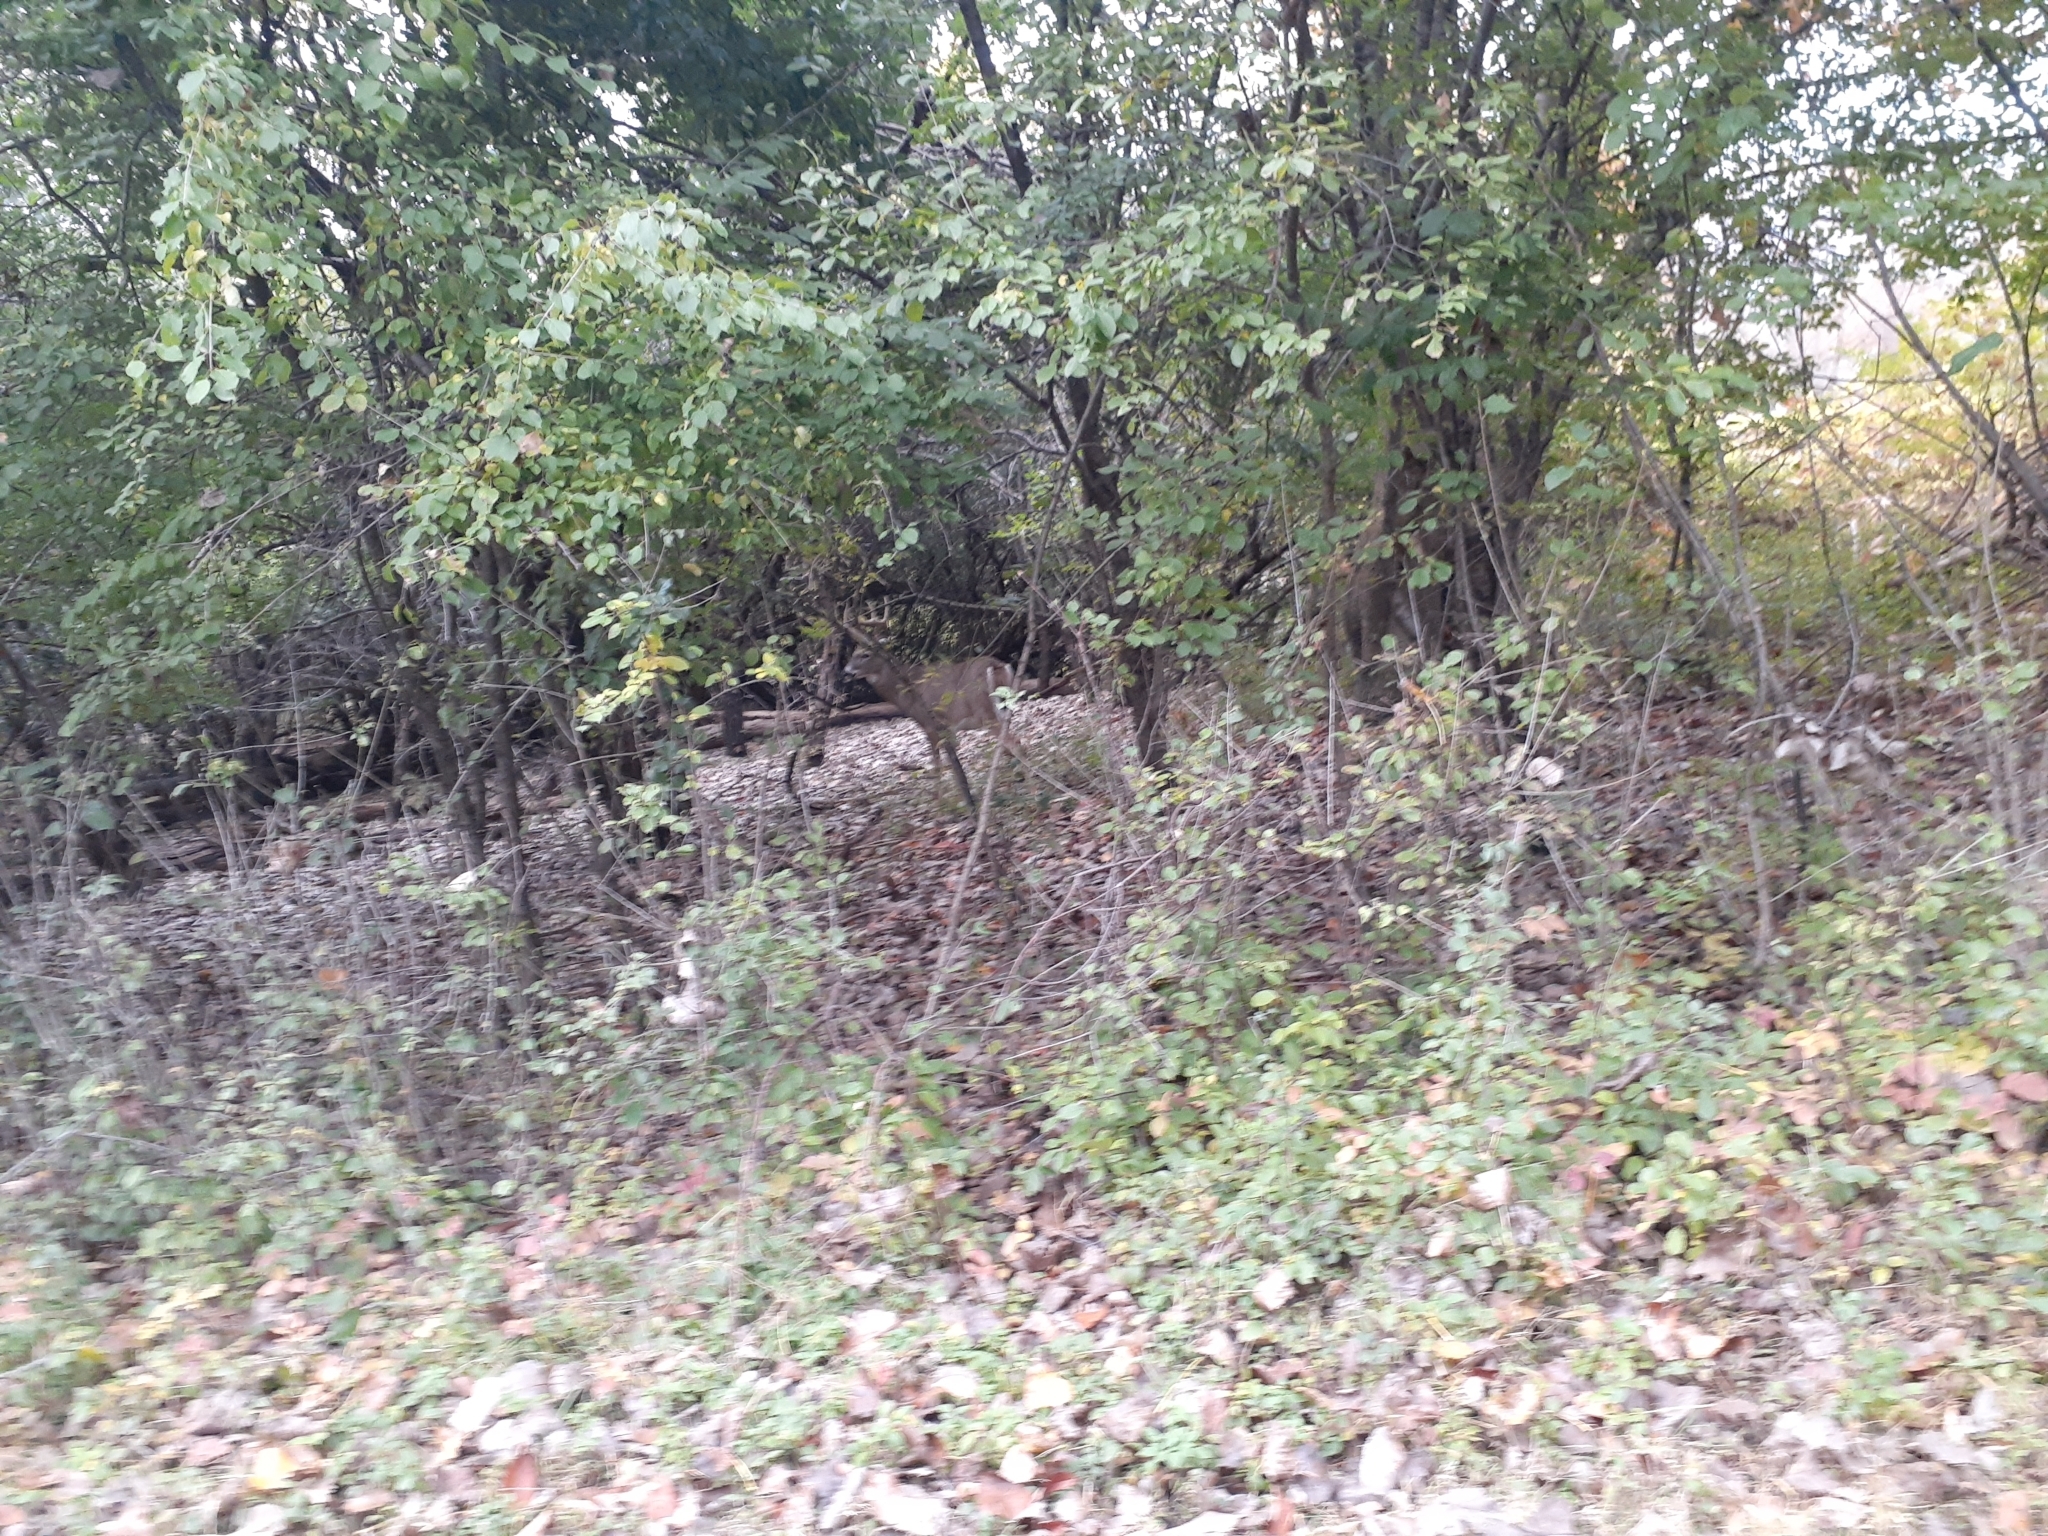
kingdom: Animalia
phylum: Chordata
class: Mammalia
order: Artiodactyla
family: Cervidae
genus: Odocoileus
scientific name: Odocoileus virginianus
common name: White-tailed deer
